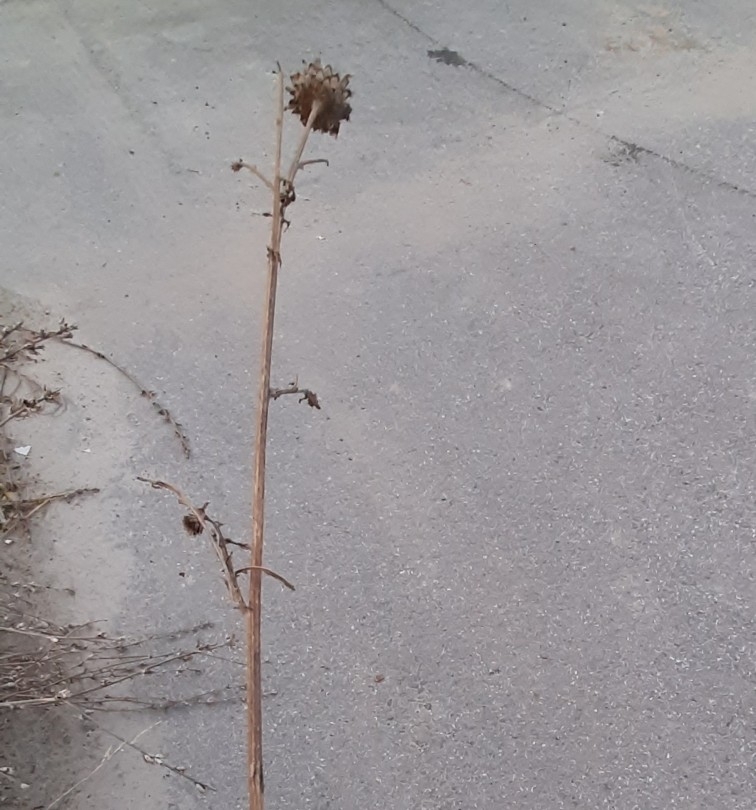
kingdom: Plantae
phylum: Tracheophyta
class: Magnoliopsida
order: Asterales
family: Asteraceae
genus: Centaurea
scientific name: Centaurea scabiosa
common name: Greater knapweed
